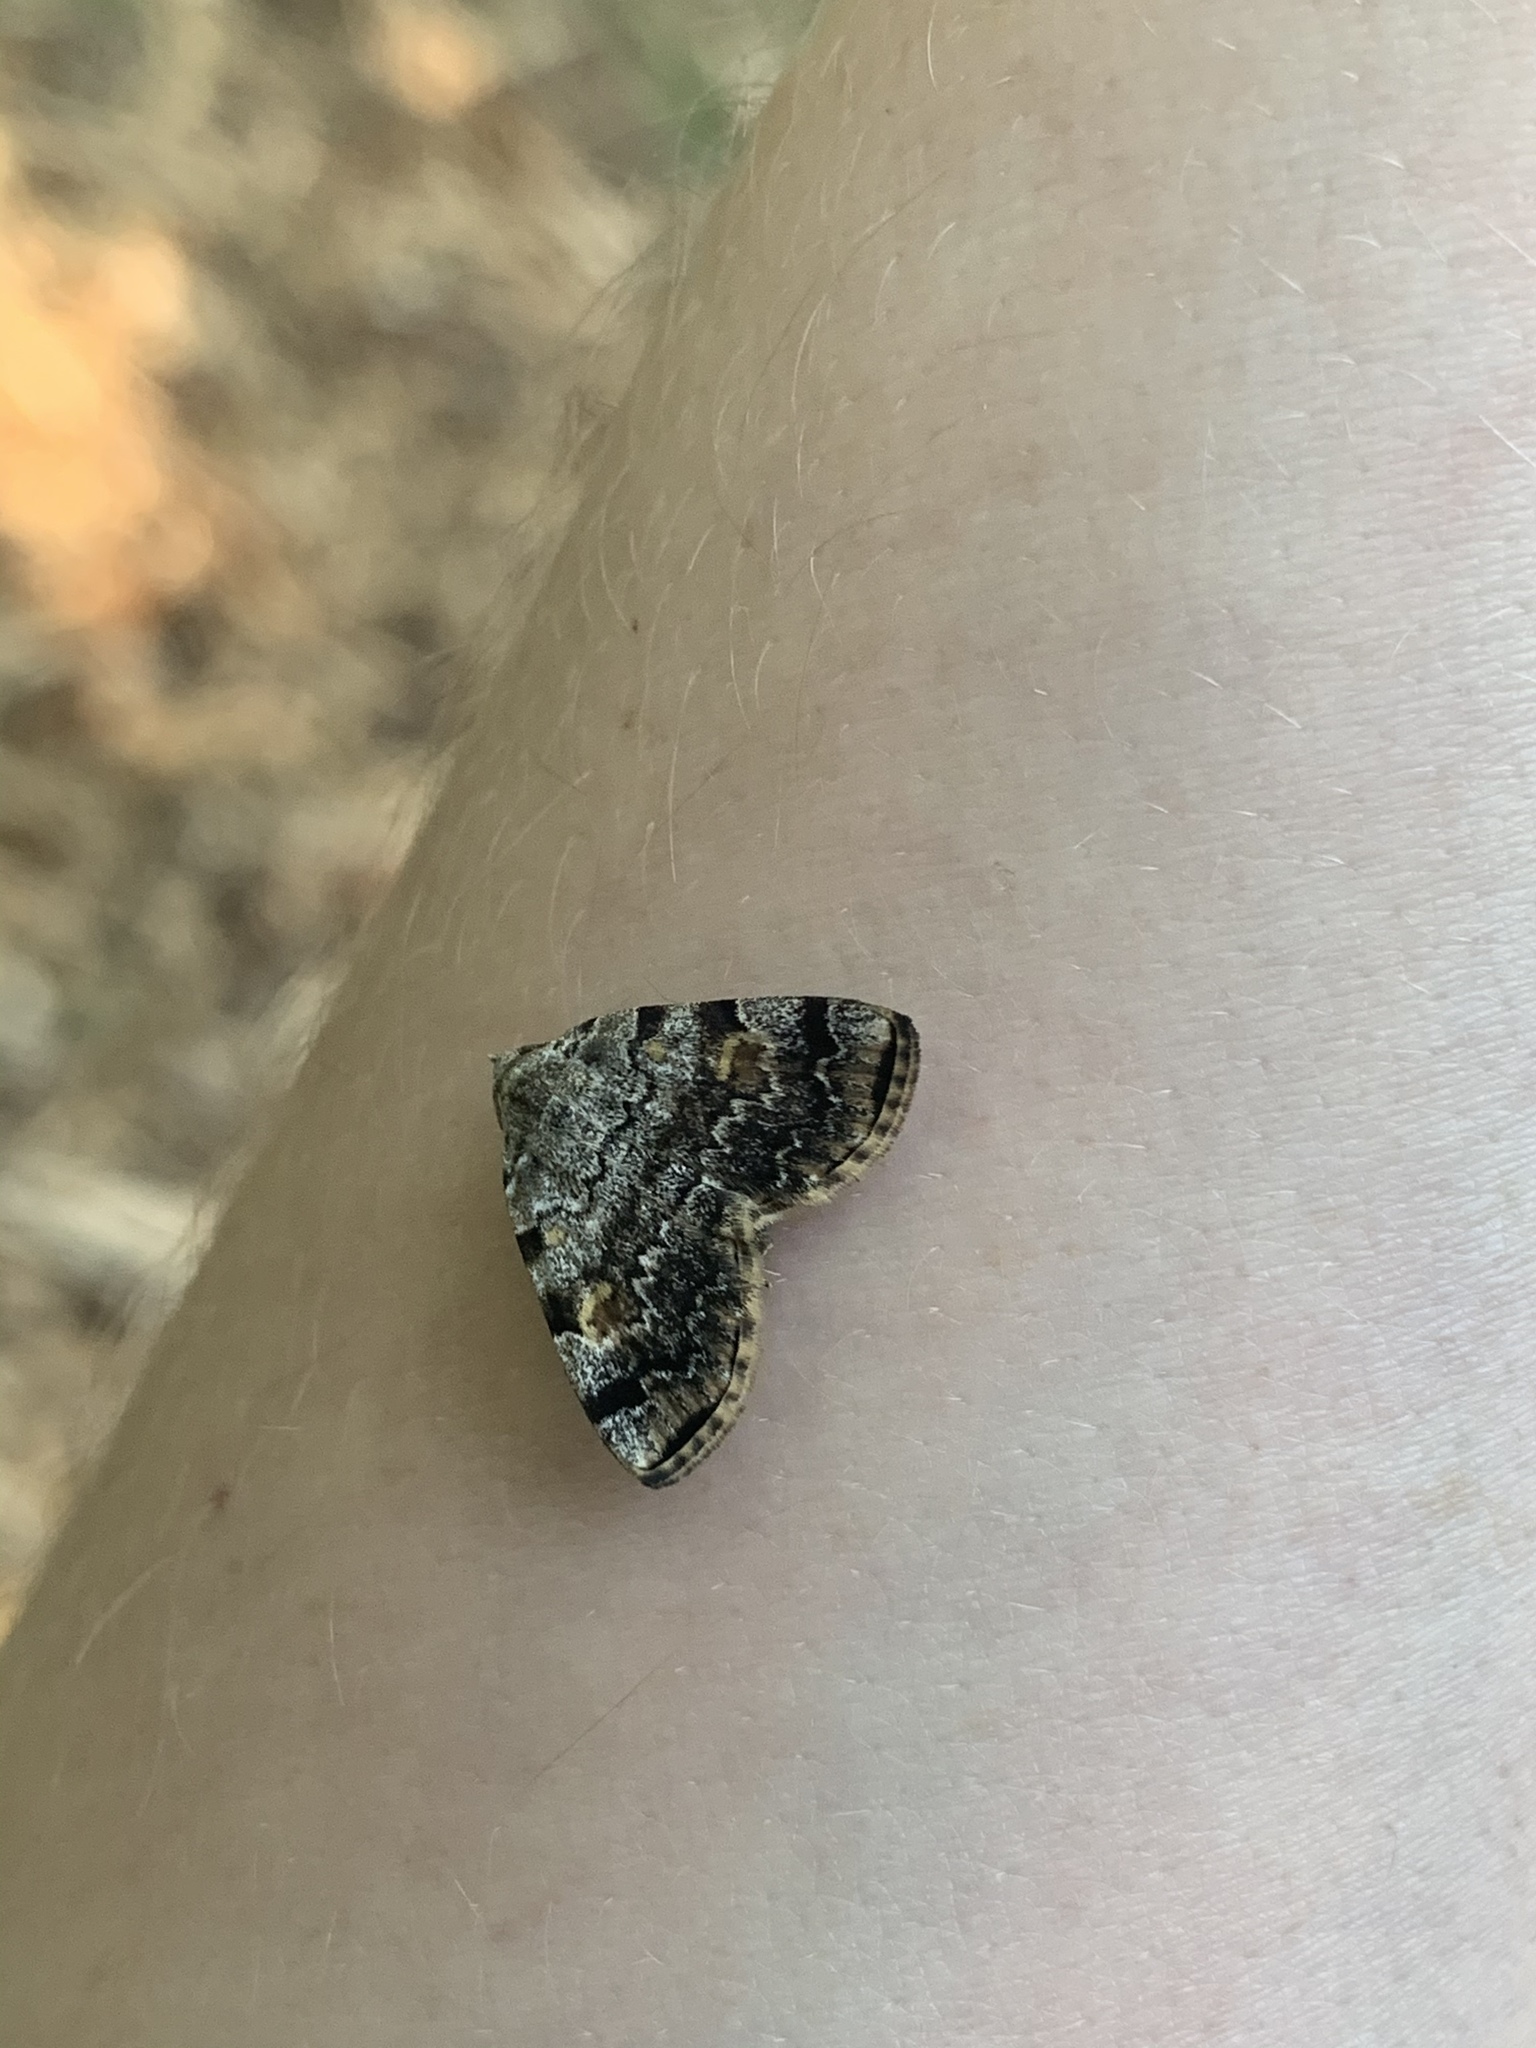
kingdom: Animalia
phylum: Arthropoda
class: Insecta
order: Lepidoptera
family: Erebidae
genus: Idia
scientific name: Idia americalis
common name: American idia moth
